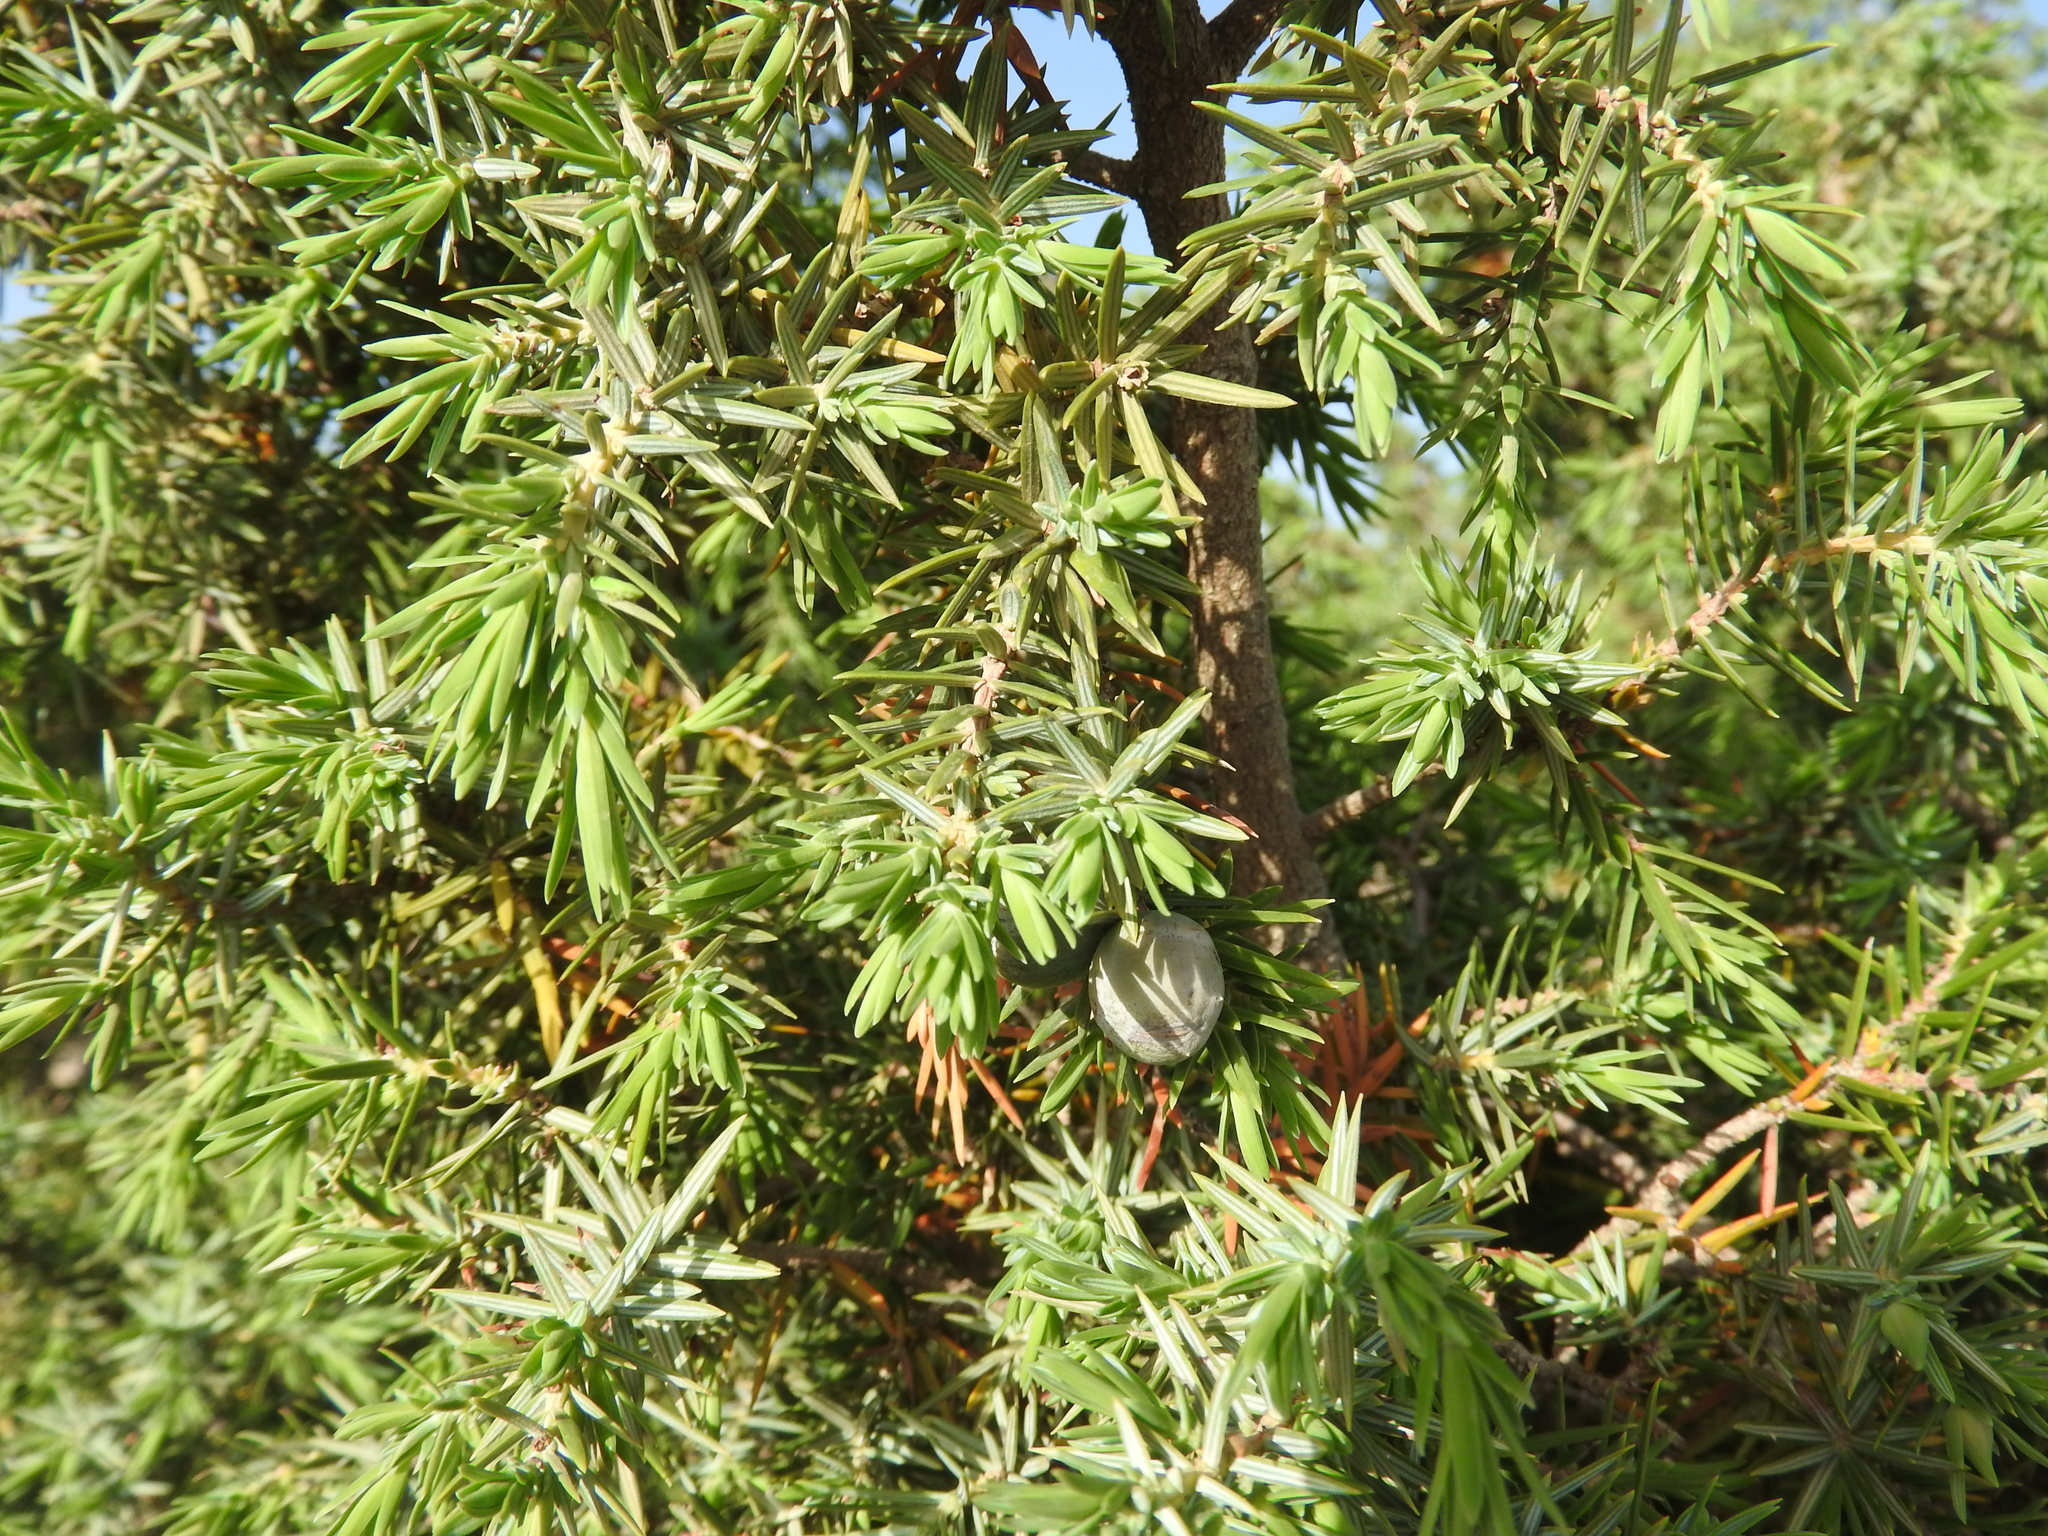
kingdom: Plantae
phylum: Tracheophyta
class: Pinopsida
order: Pinales
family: Cupressaceae
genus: Juniperus
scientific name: Juniperus oxycedrus
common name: Prickly juniper
